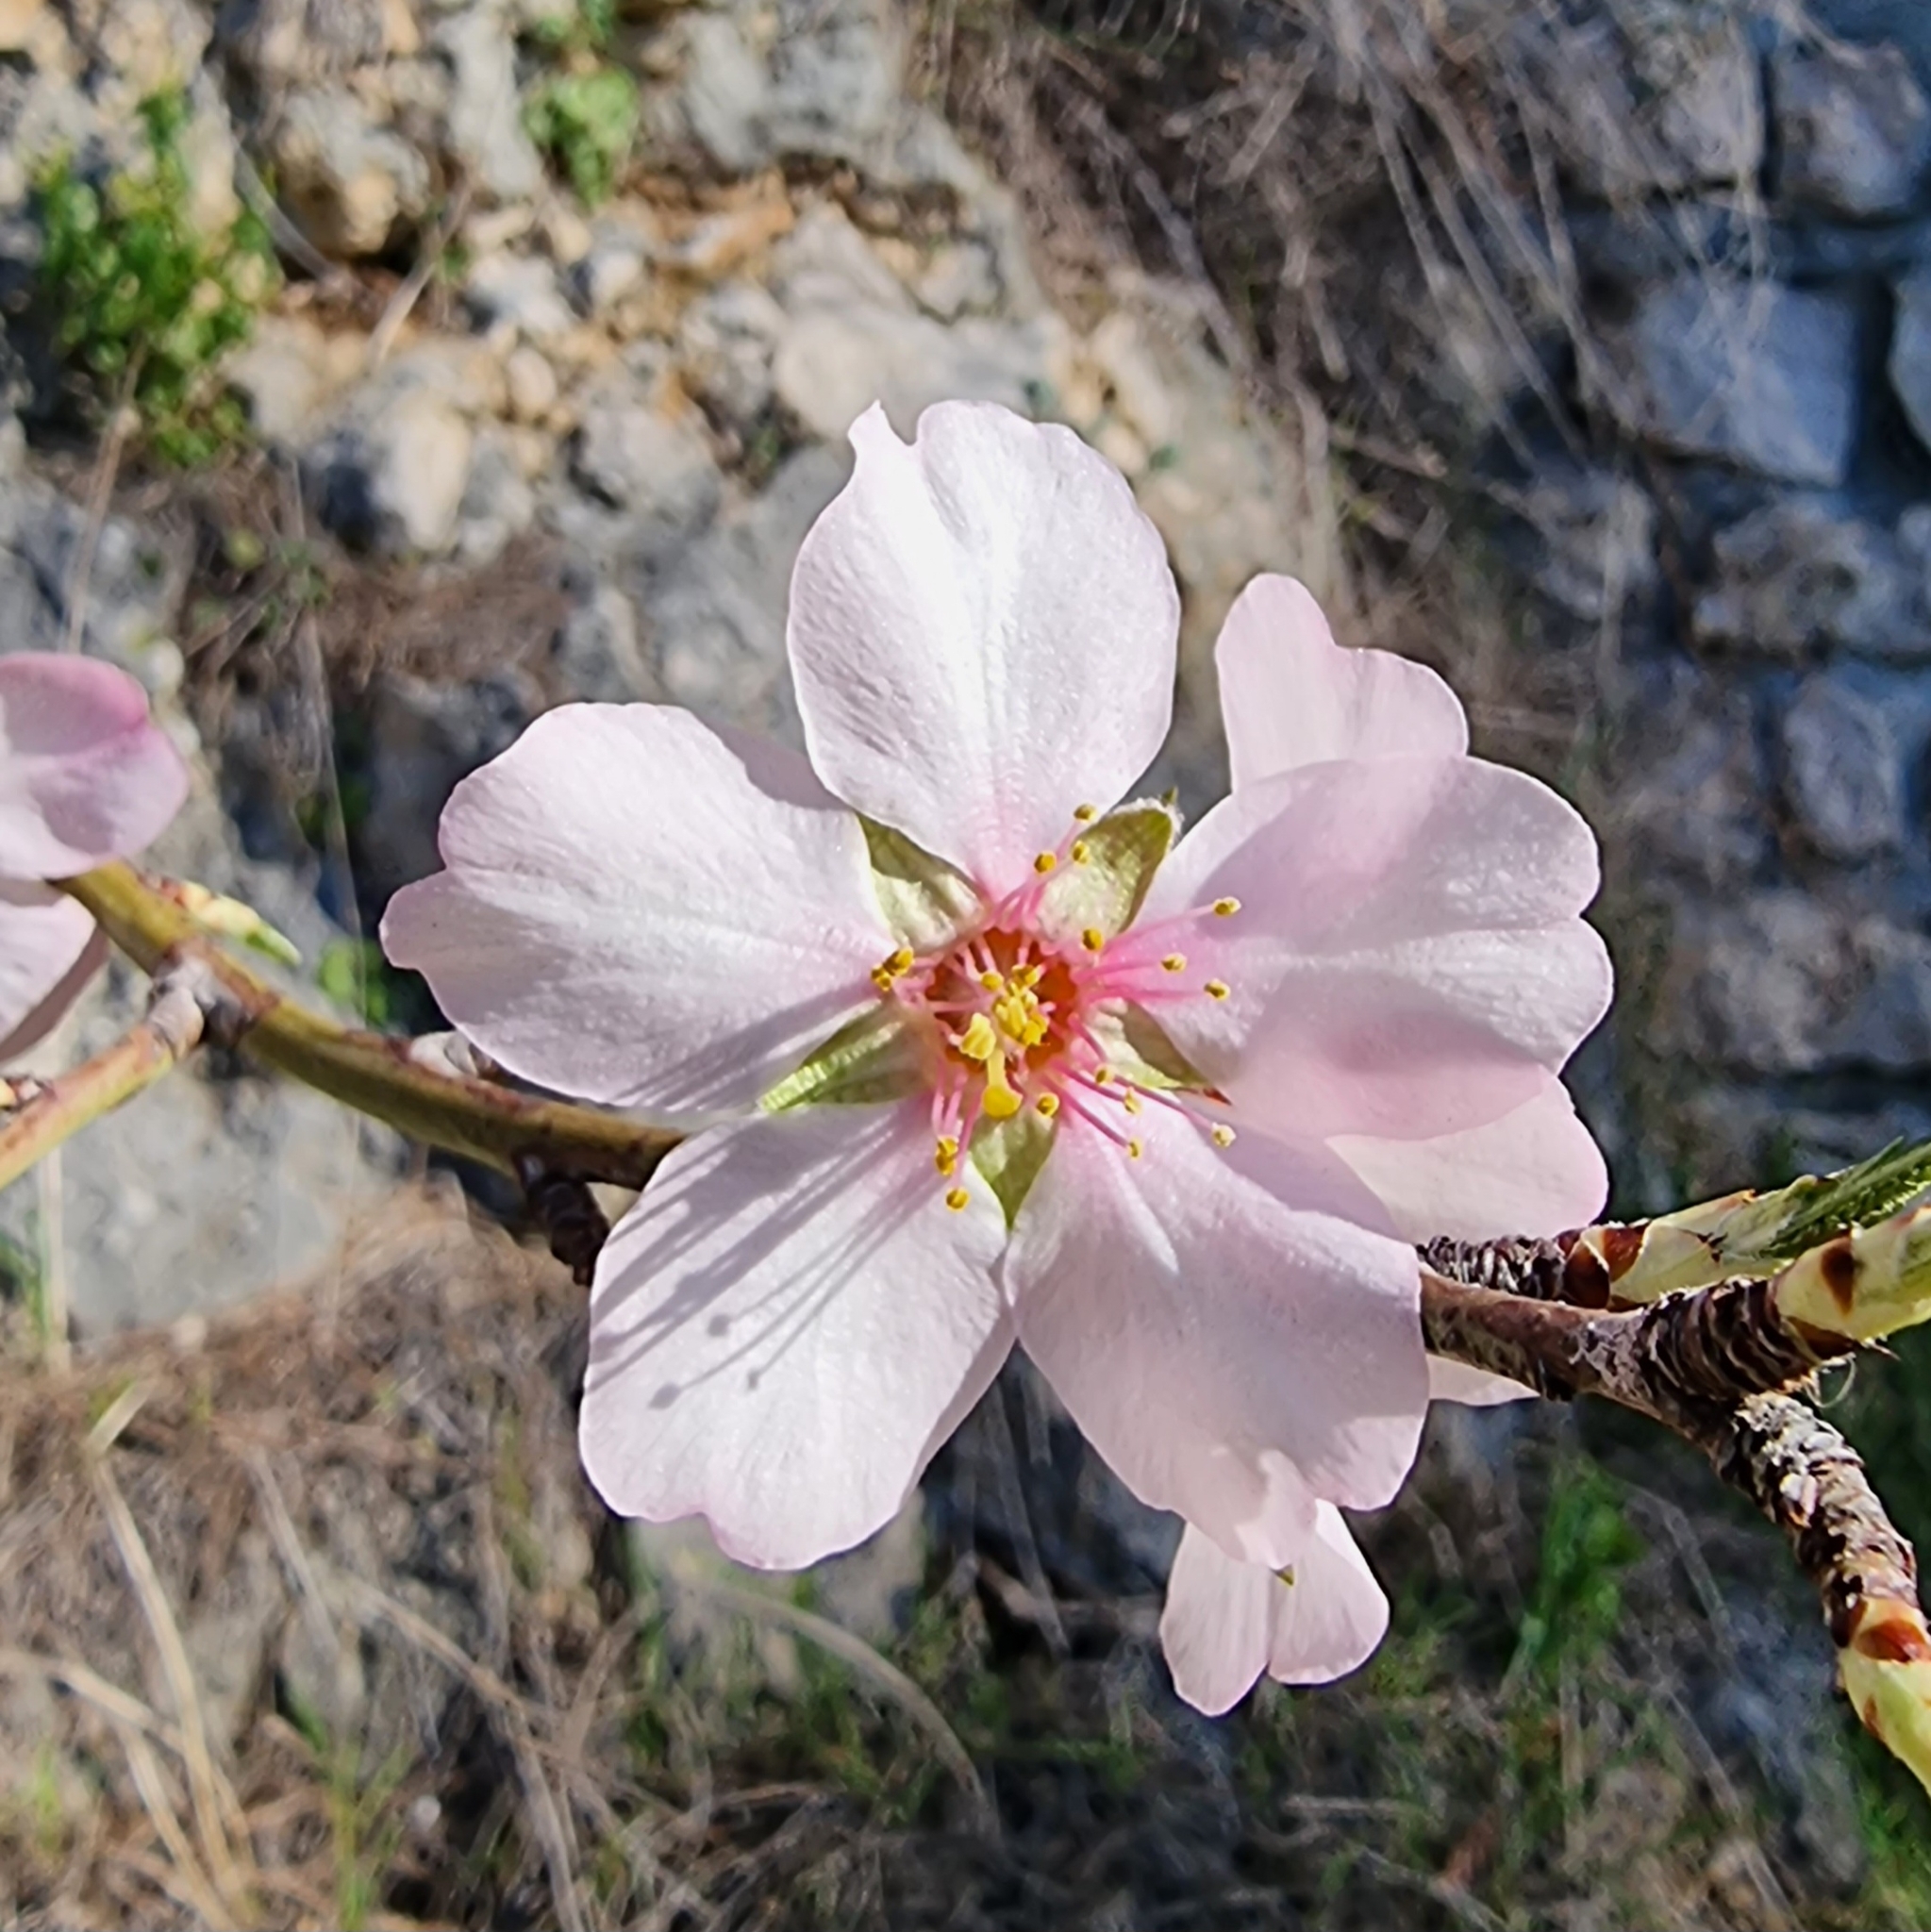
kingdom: Plantae
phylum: Tracheophyta
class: Magnoliopsida
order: Rosales
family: Rosaceae
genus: Prunus
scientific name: Prunus amygdalus
